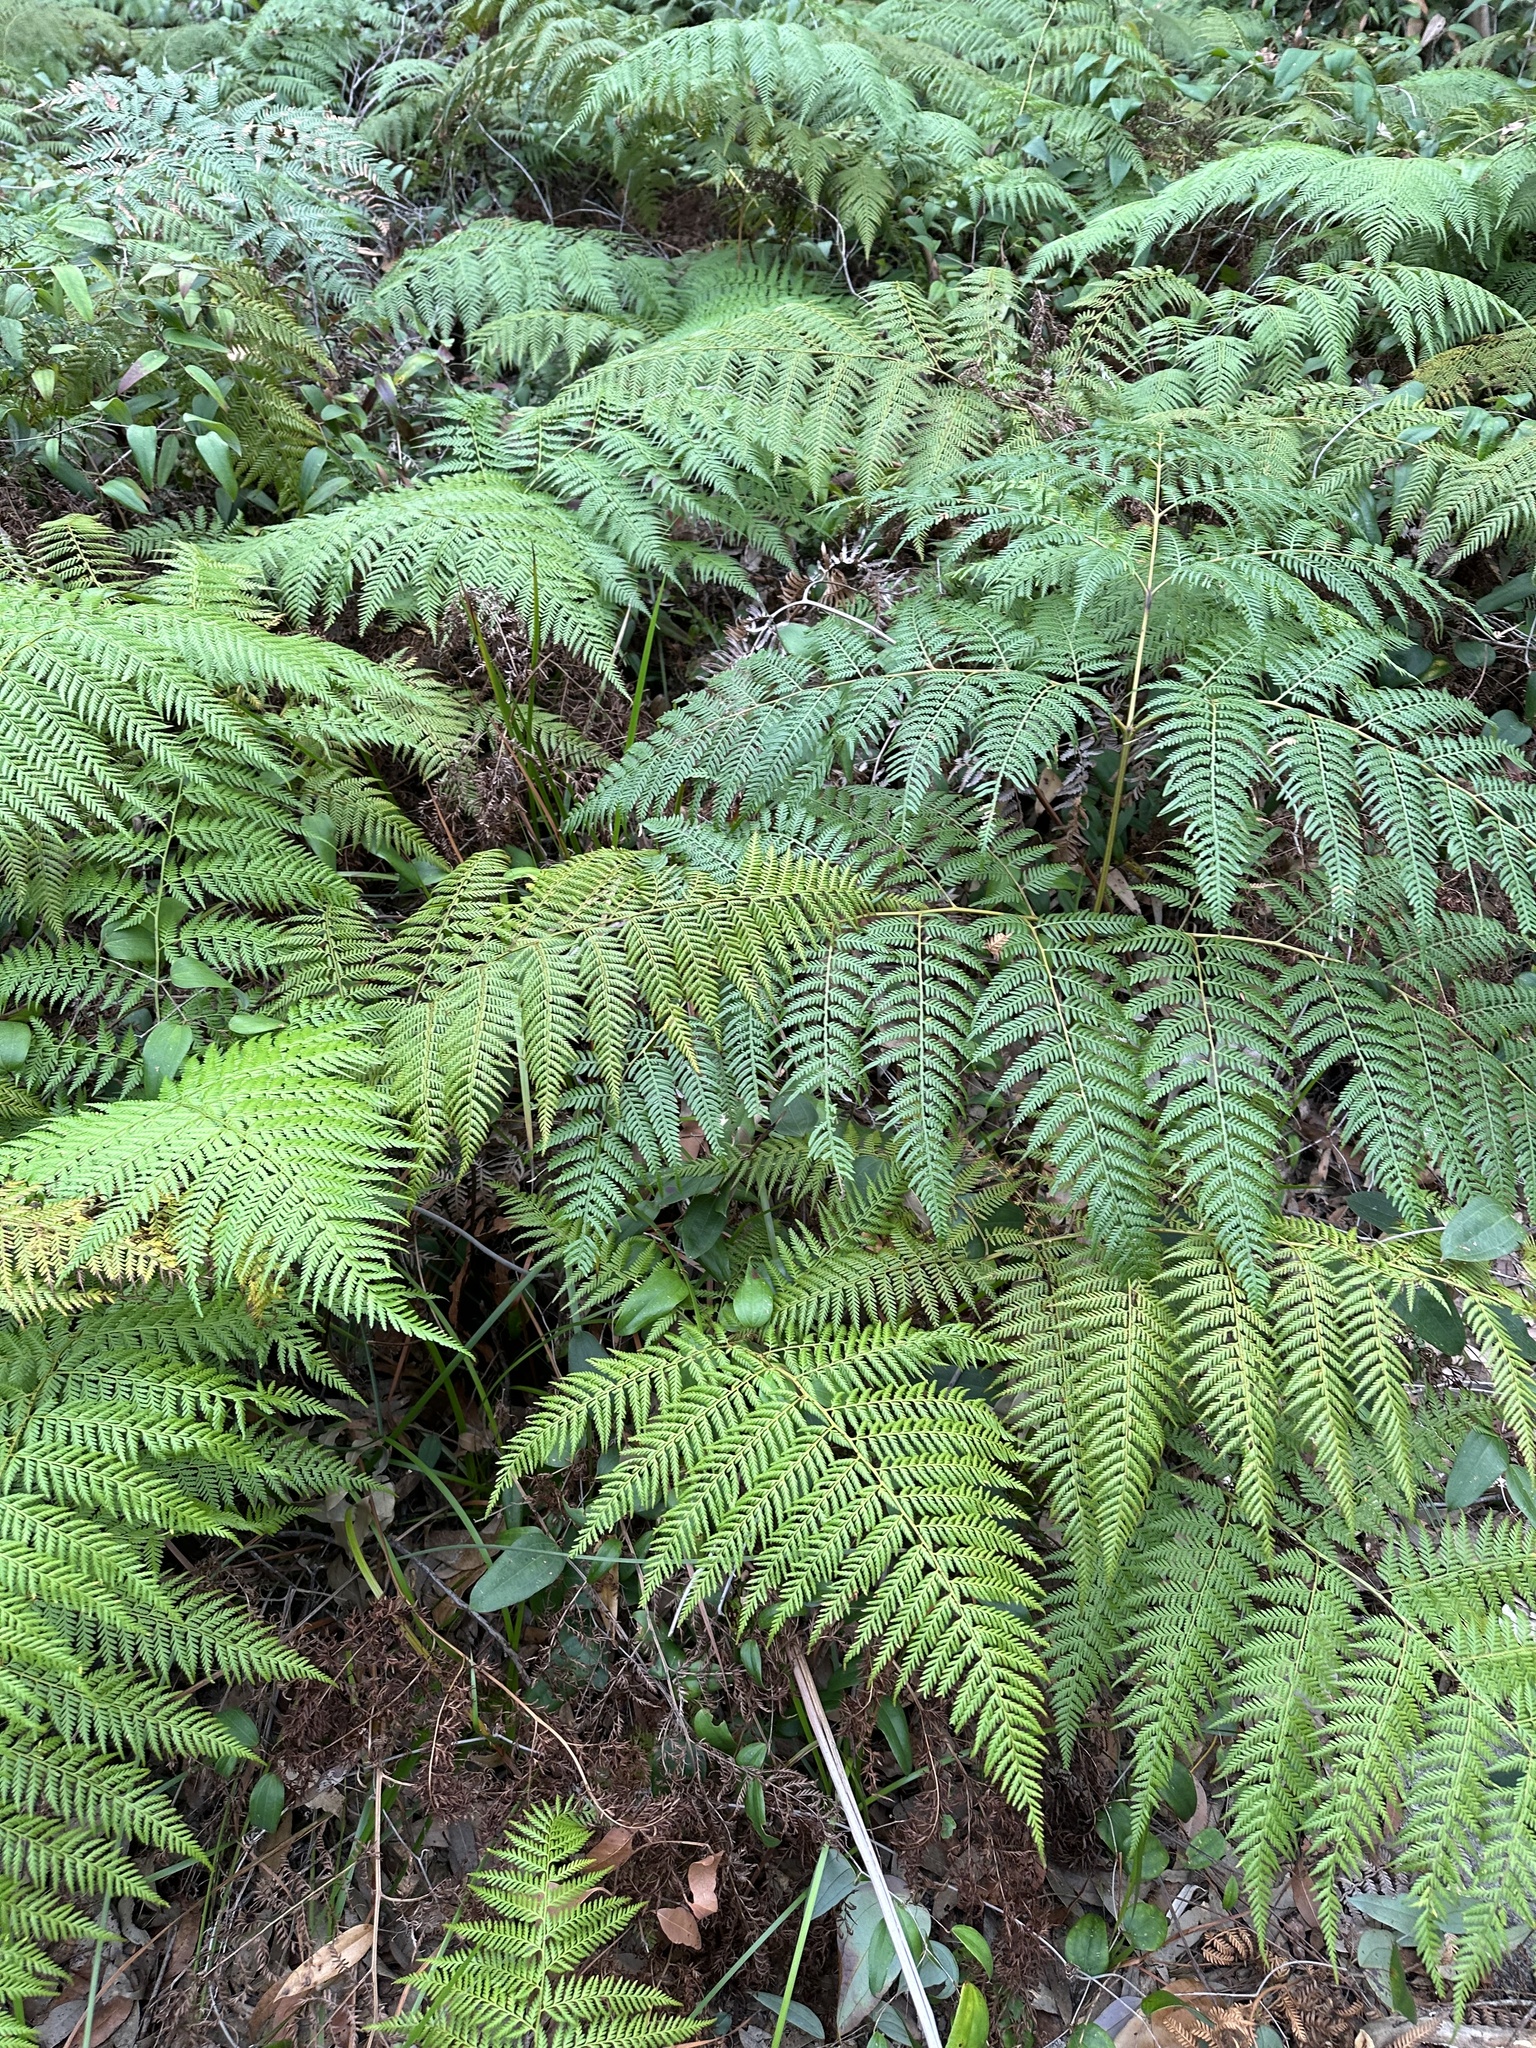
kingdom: Plantae
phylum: Tracheophyta
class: Polypodiopsida
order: Cyatheales
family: Dicksoniaceae
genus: Calochlaena
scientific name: Calochlaena dubia
